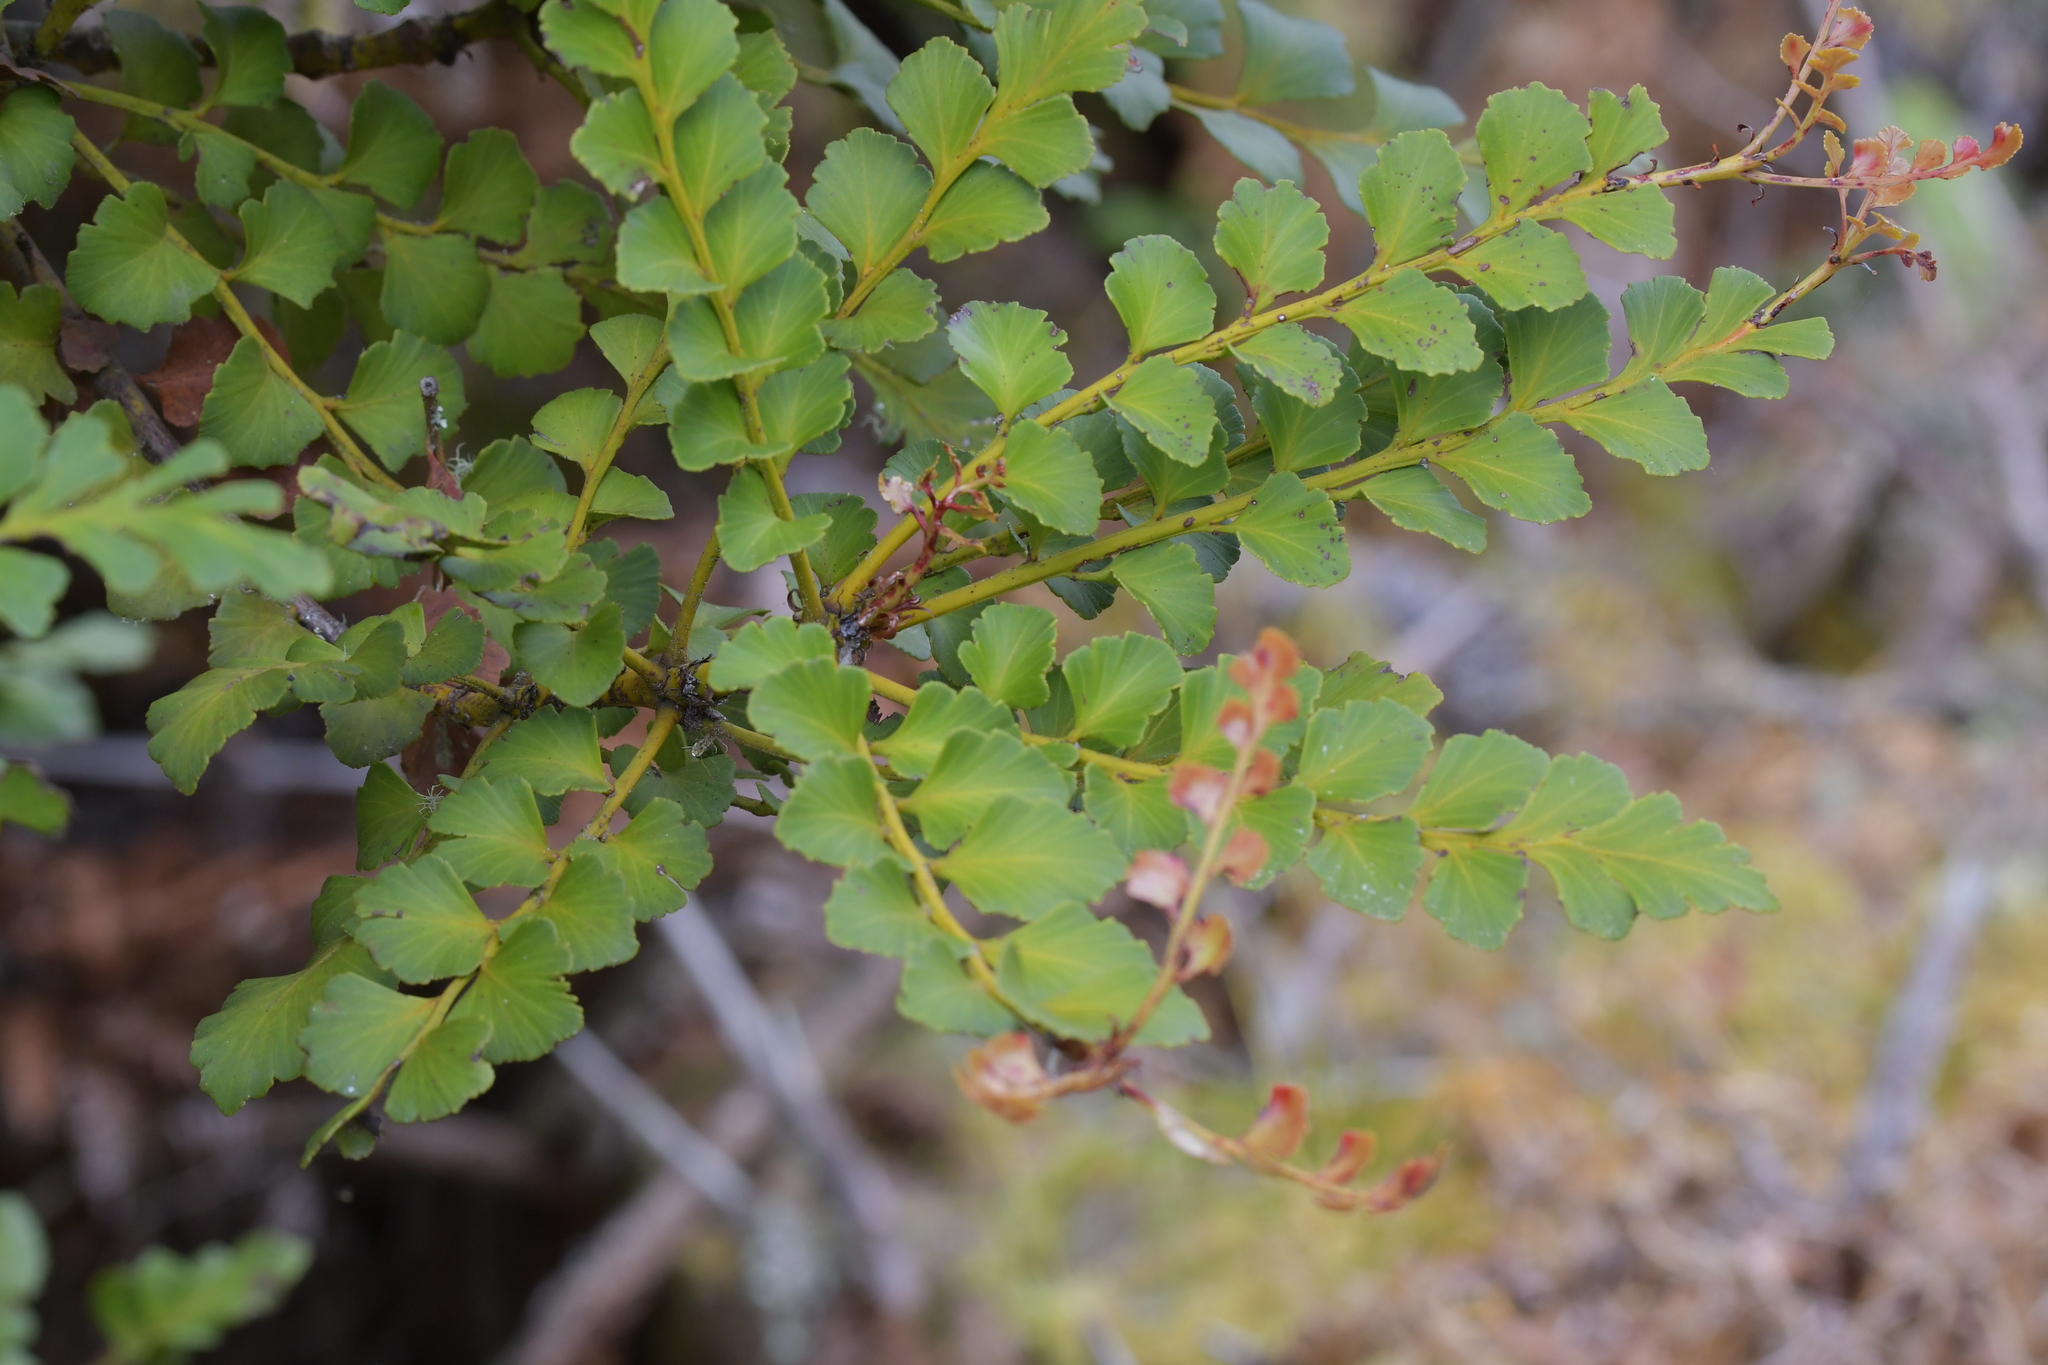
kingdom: Plantae
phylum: Tracheophyta
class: Pinopsida
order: Pinales
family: Phyllocladaceae
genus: Phyllocladus
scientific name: Phyllocladus toatoa
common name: Celery-top pine
